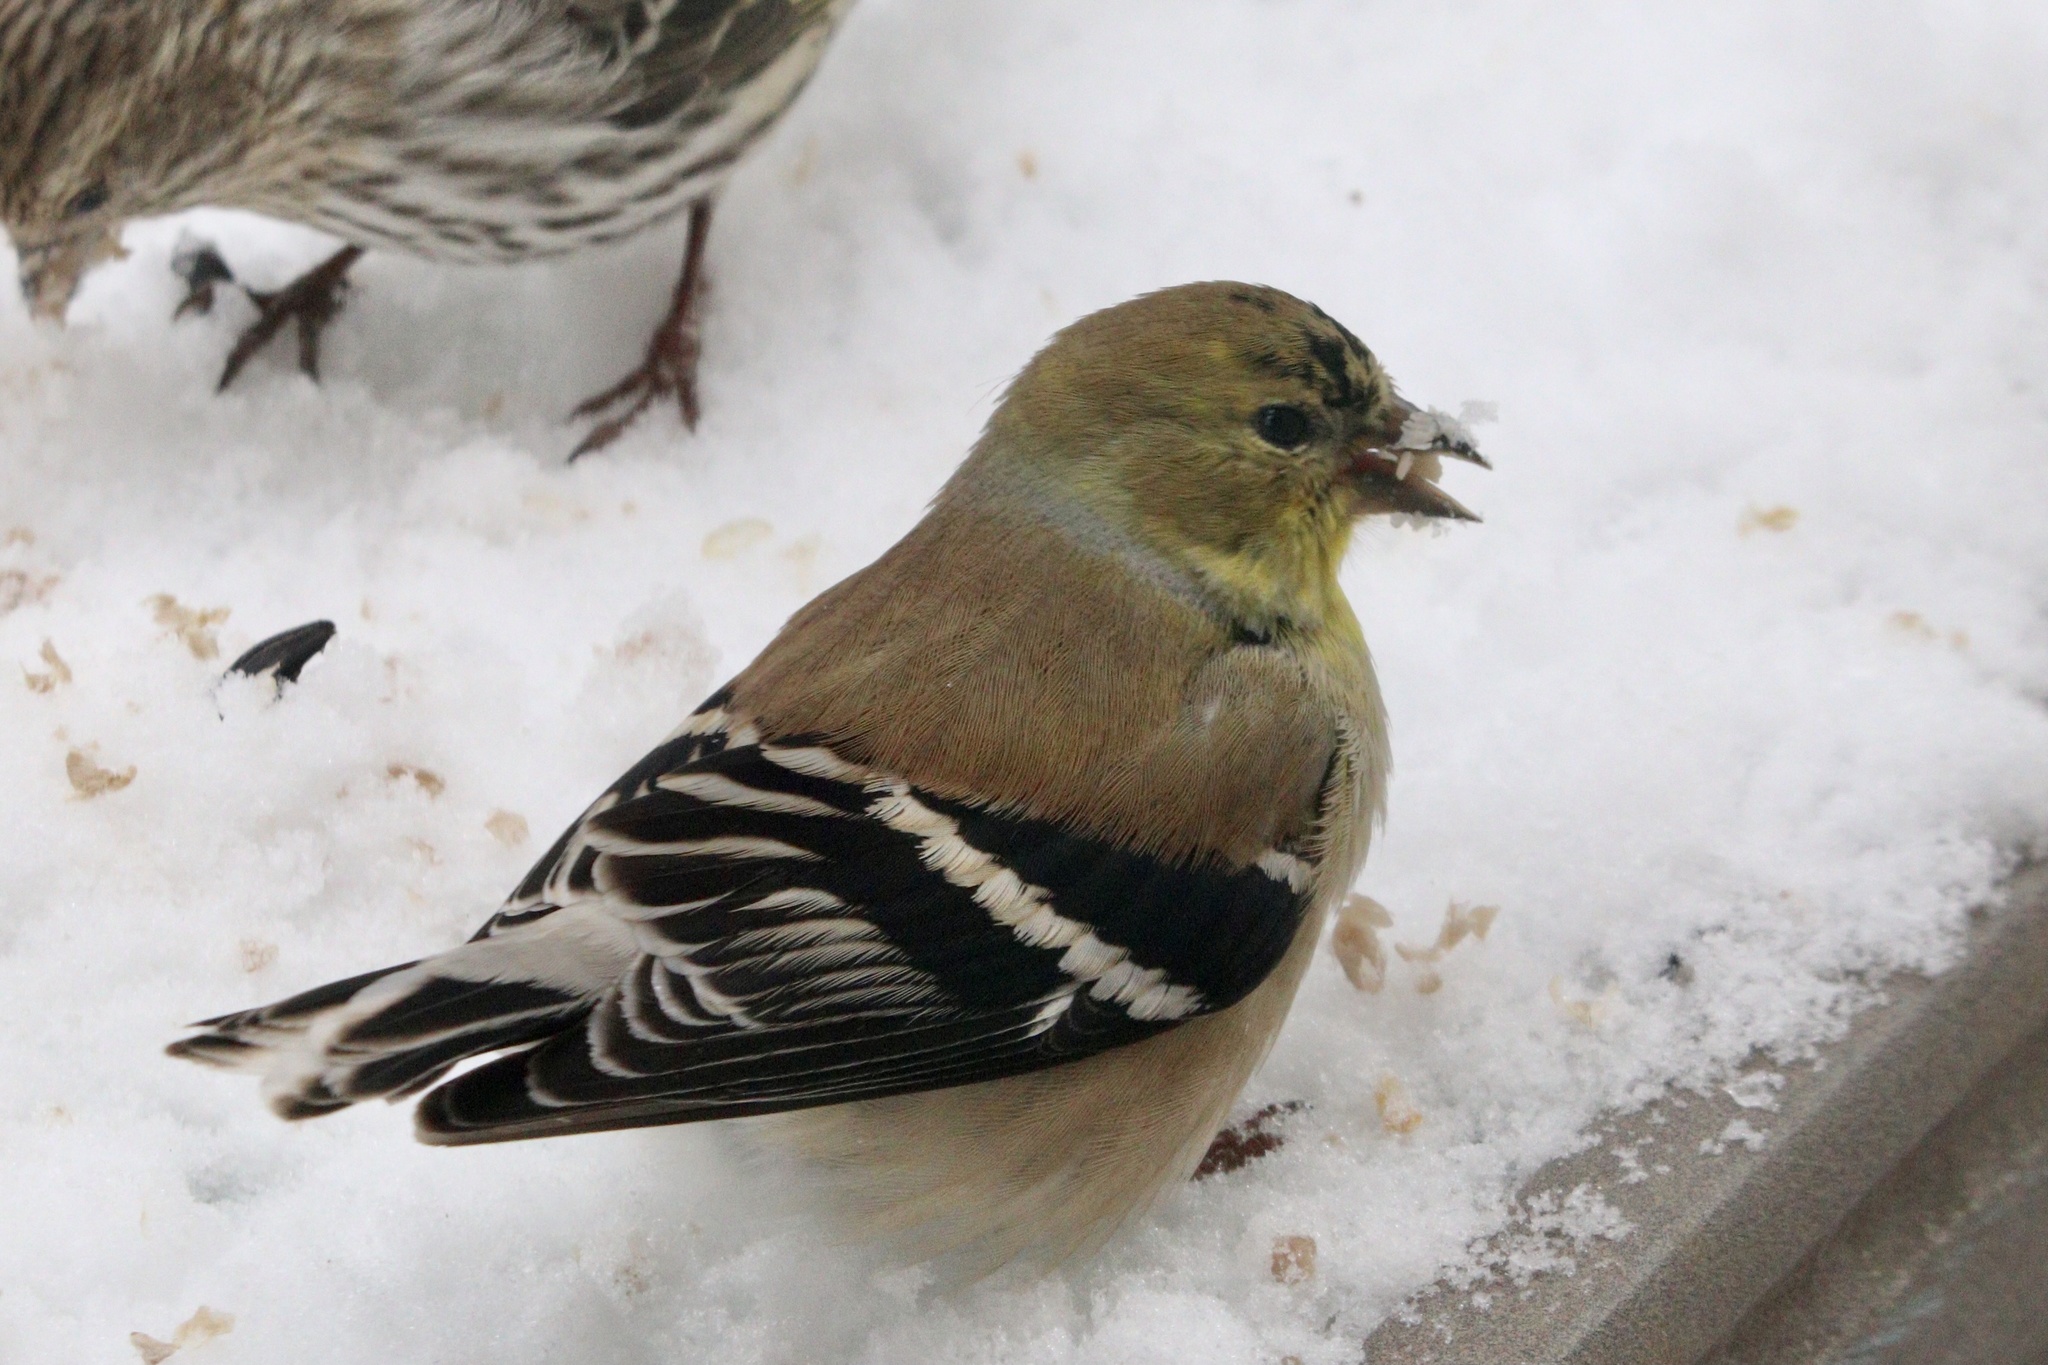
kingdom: Animalia
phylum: Chordata
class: Aves
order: Passeriformes
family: Fringillidae
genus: Spinus
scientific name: Spinus tristis
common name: American goldfinch
